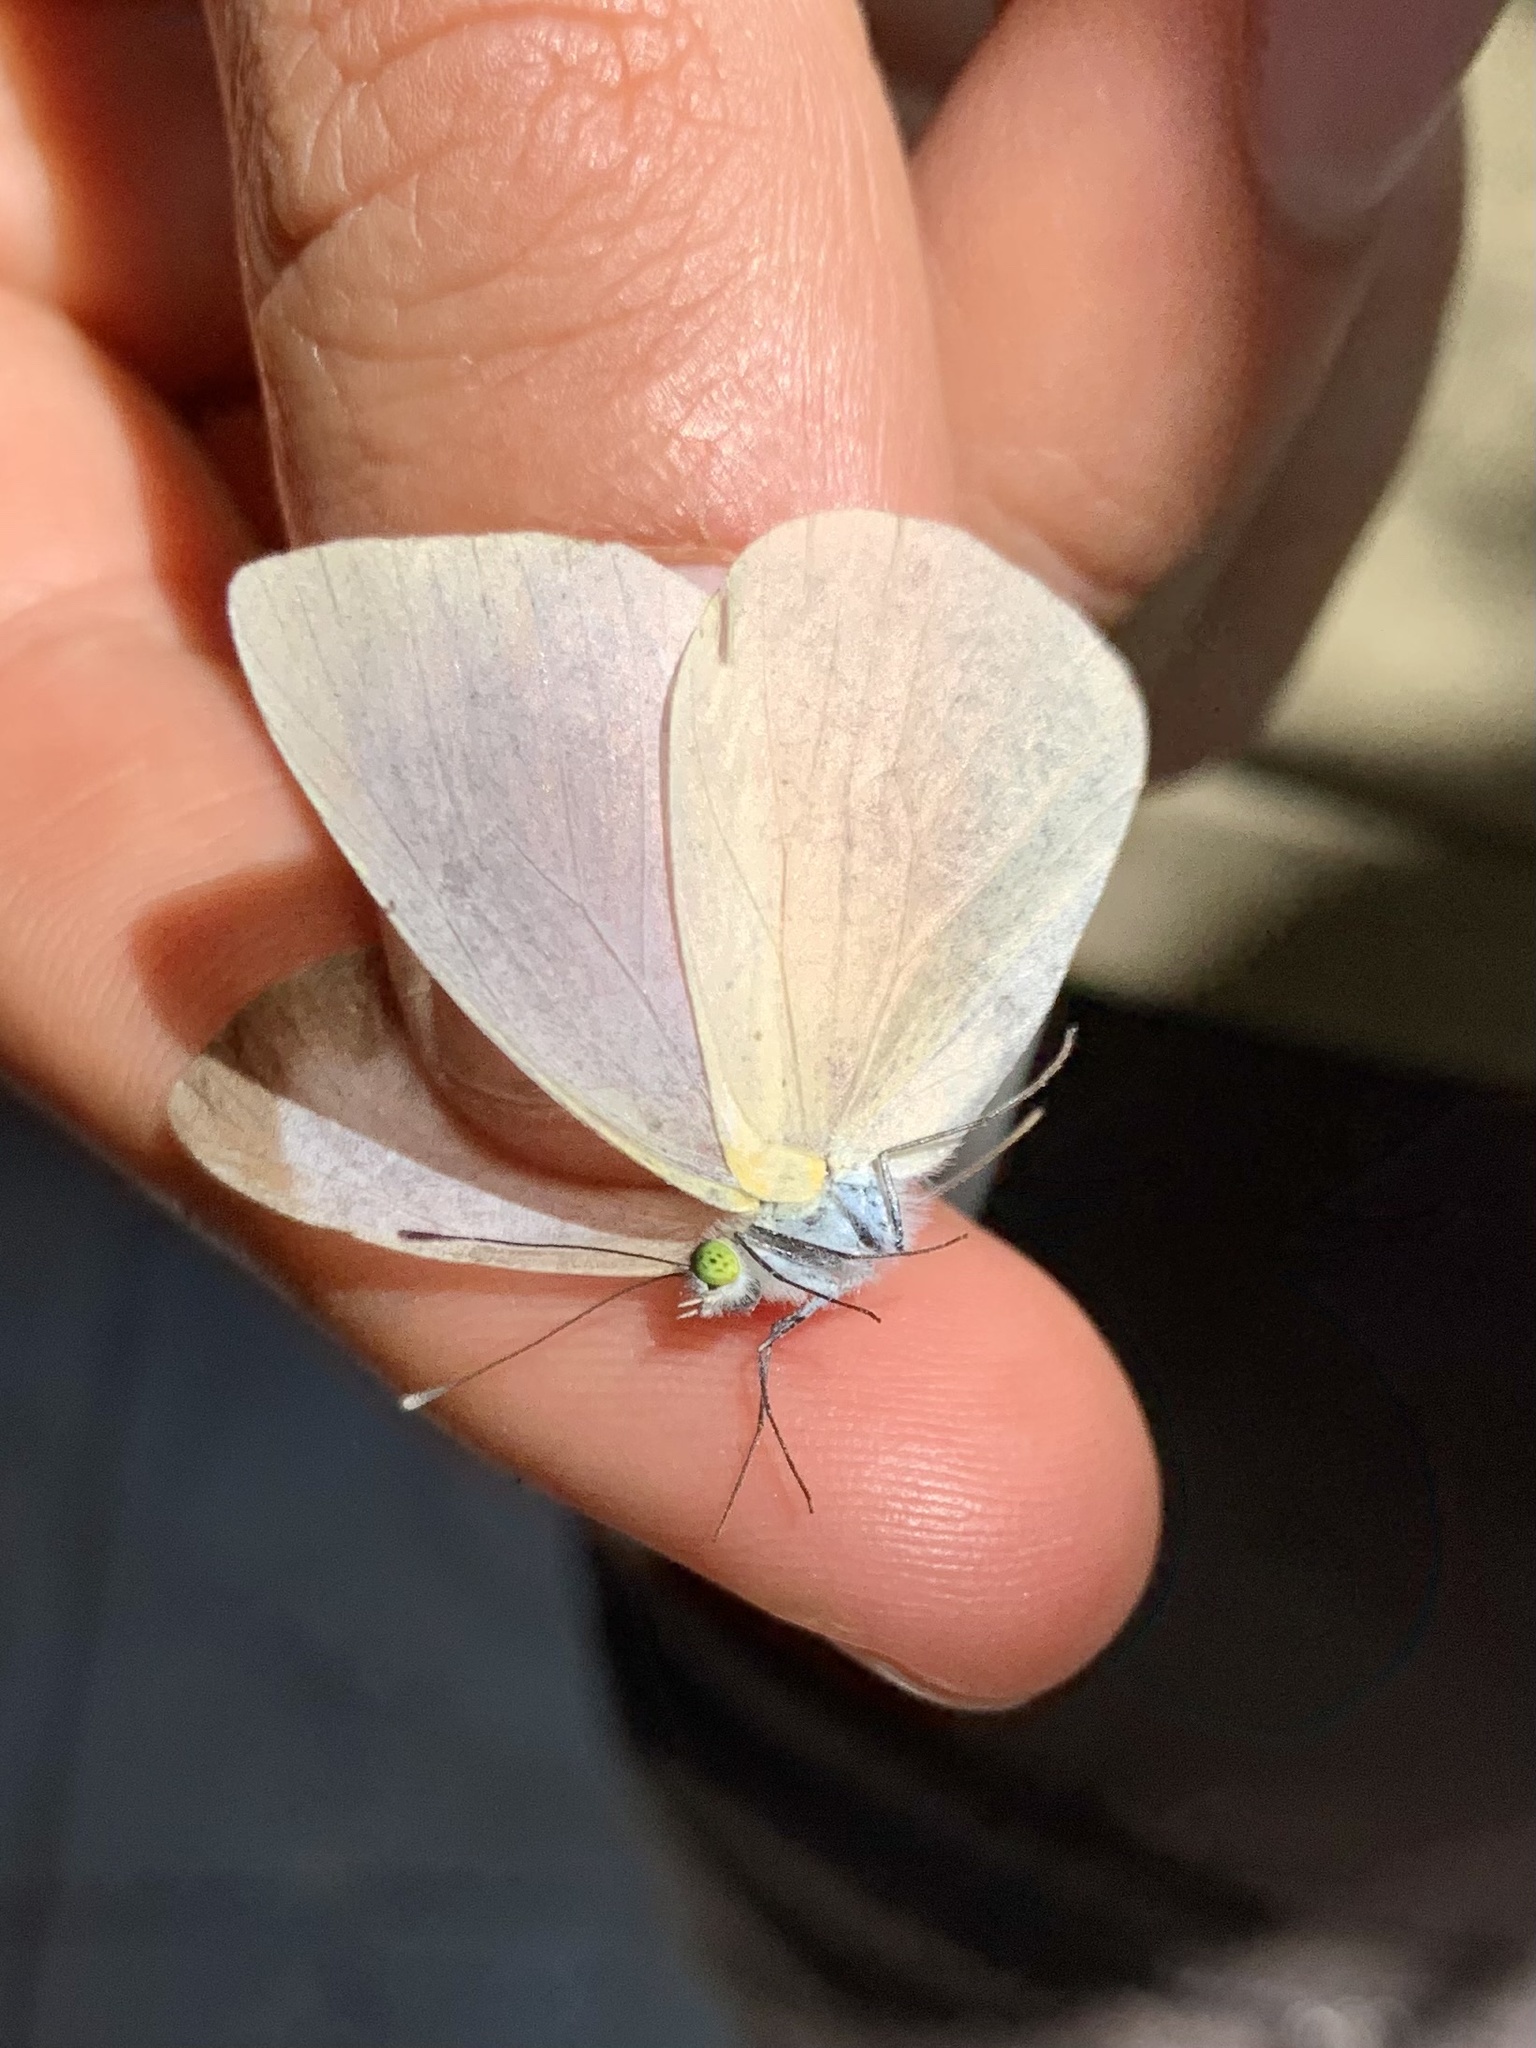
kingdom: Animalia
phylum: Arthropoda
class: Insecta
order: Lepidoptera
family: Pieridae
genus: Leptophobia
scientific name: Leptophobia aripa
